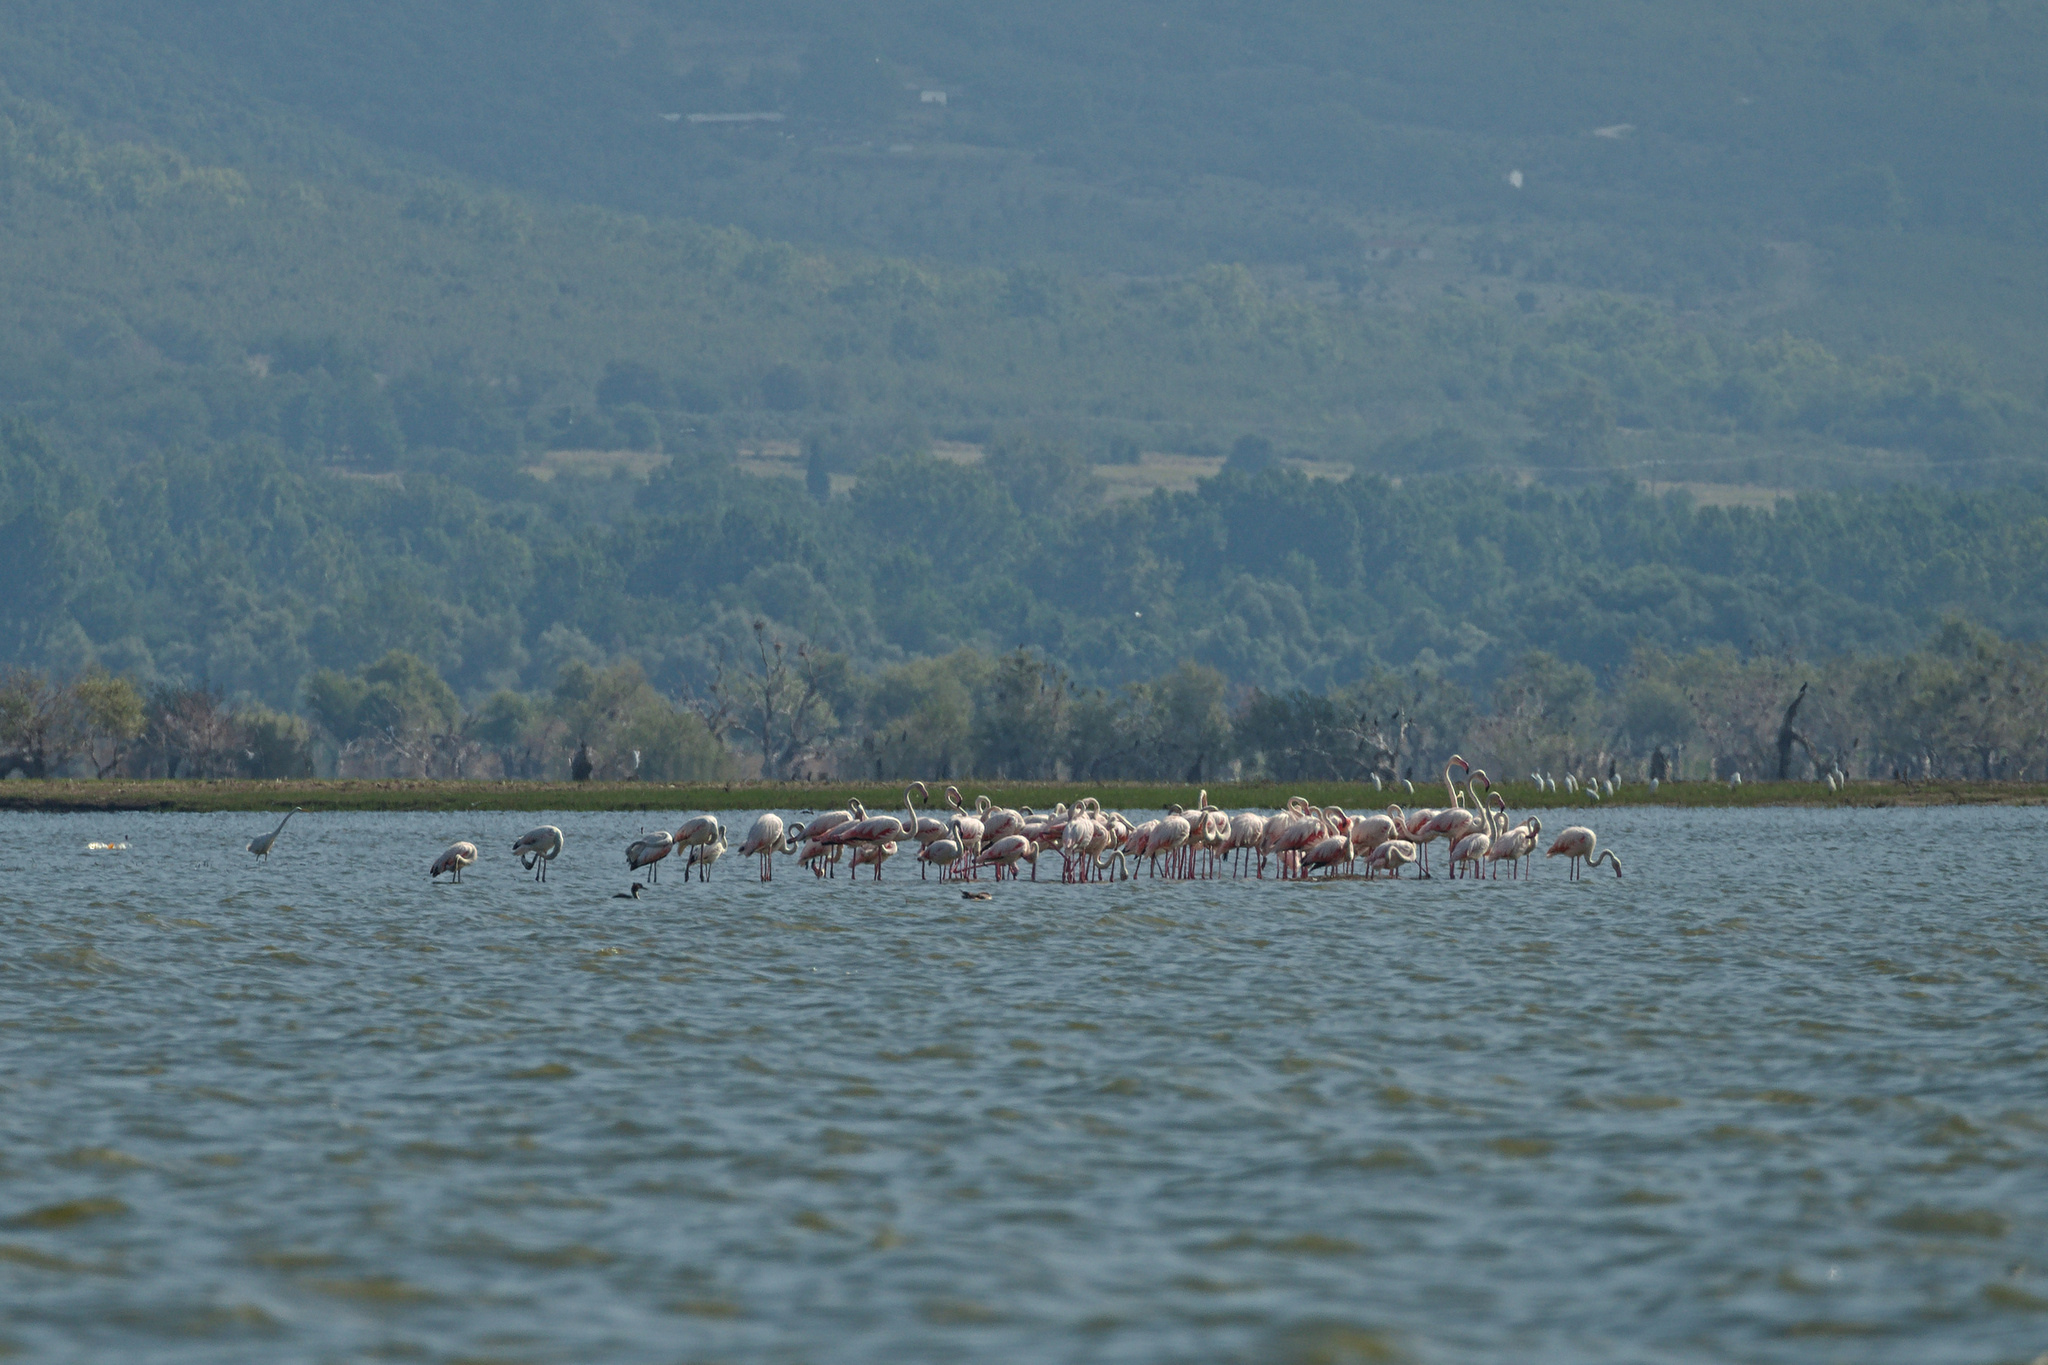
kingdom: Animalia
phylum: Chordata
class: Aves
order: Phoenicopteriformes
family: Phoenicopteridae
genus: Phoenicopterus
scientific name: Phoenicopterus roseus
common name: Greater flamingo
